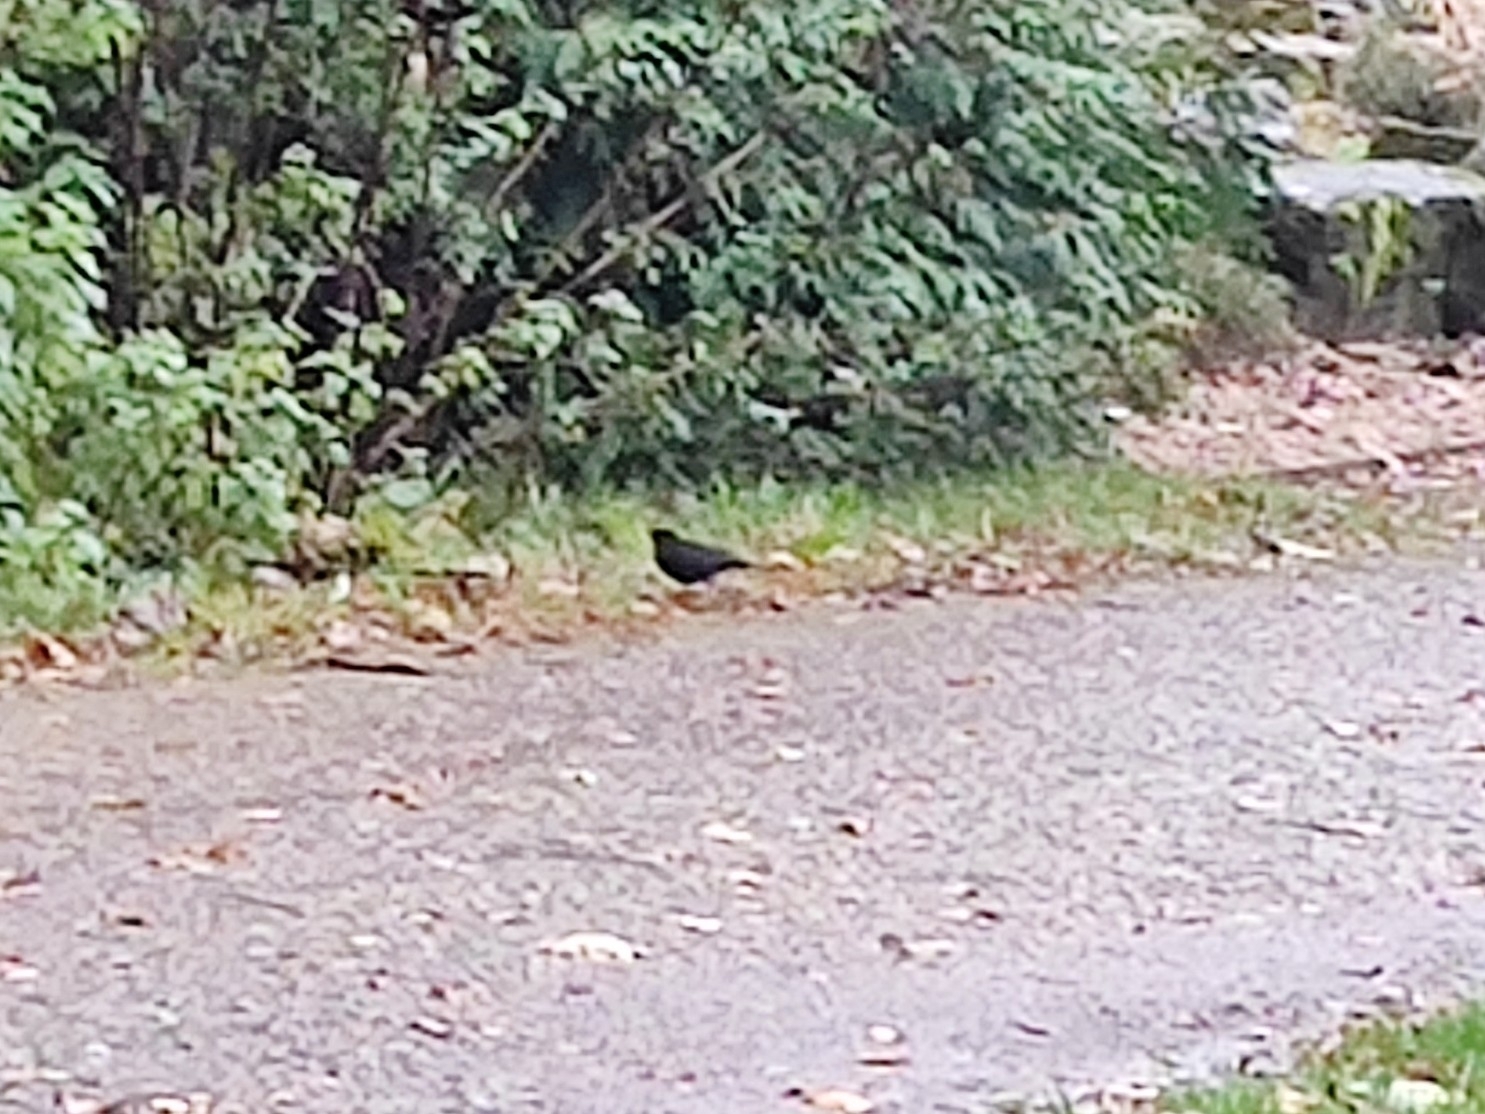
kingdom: Animalia
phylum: Chordata
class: Aves
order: Passeriformes
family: Turdidae
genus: Turdus
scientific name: Turdus merula
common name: Common blackbird
